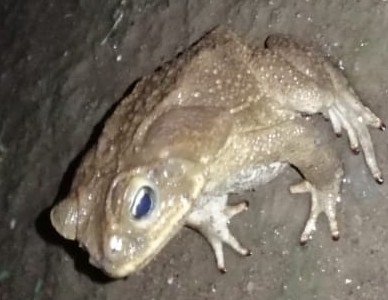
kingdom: Animalia
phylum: Chordata
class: Amphibia
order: Anura
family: Bufonidae
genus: Rhinella
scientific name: Rhinella horribilis
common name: Mesoamerican cane toad
